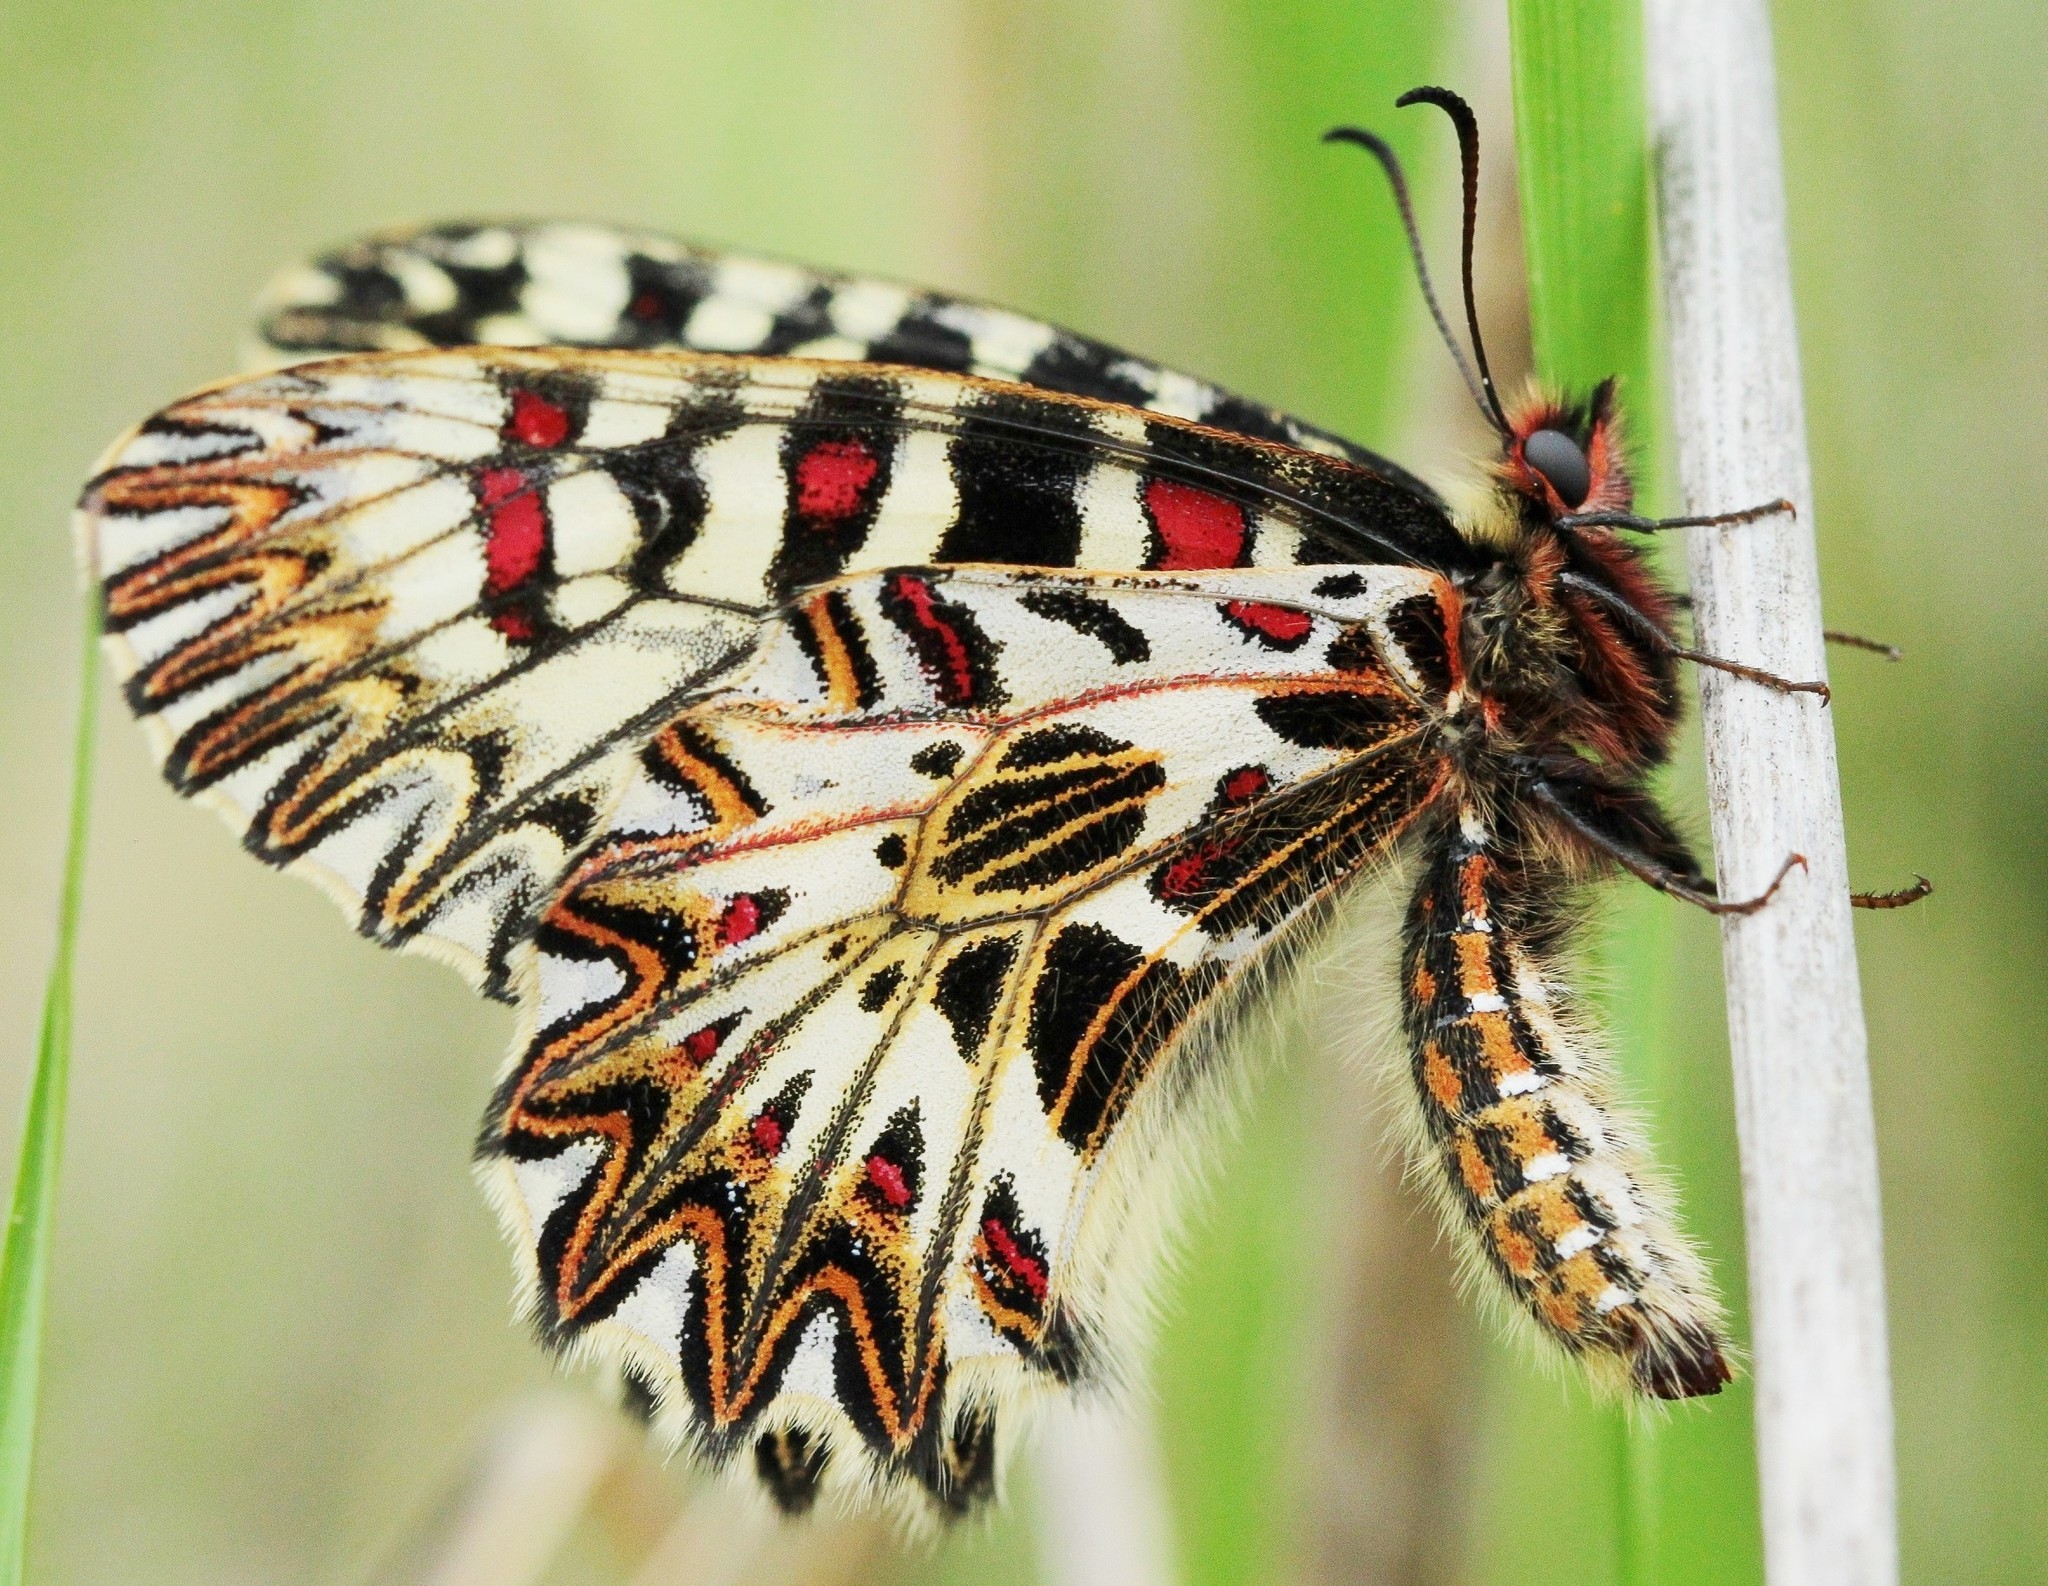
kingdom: Animalia
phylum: Arthropoda
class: Insecta
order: Lepidoptera
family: Papilionidae
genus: Zerynthia
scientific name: Zerynthia polyxena
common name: Southern festoon
